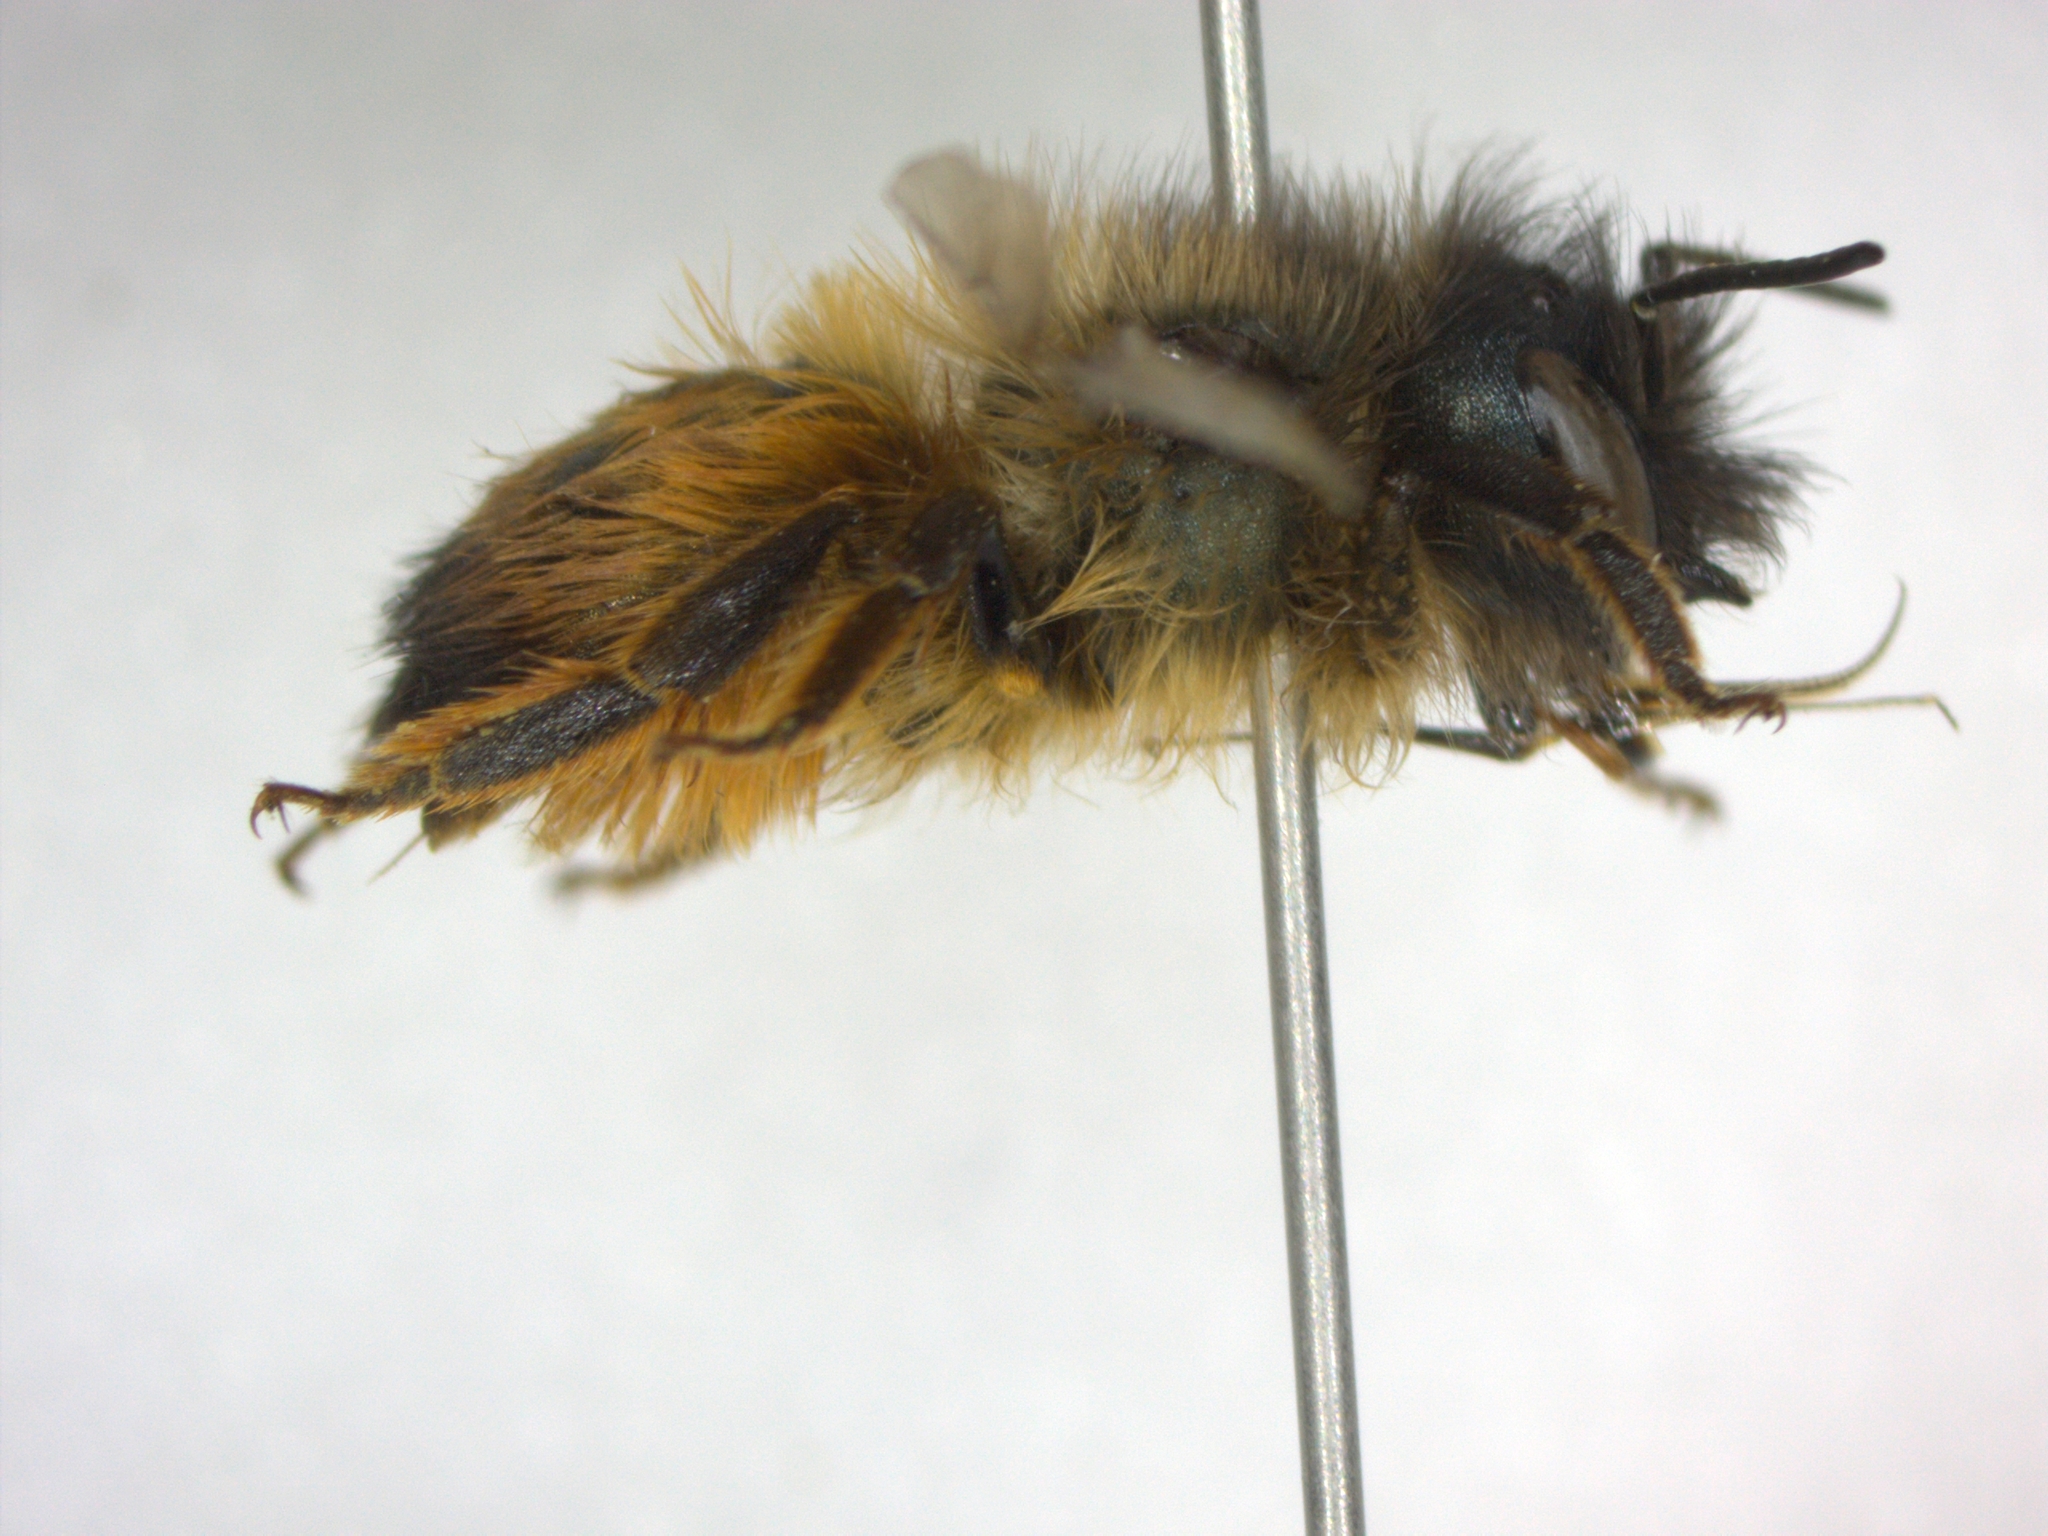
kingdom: Animalia
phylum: Arthropoda
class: Insecta
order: Hymenoptera
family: Megachilidae
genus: Osmia
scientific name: Osmia bicornis
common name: Red mason bee
